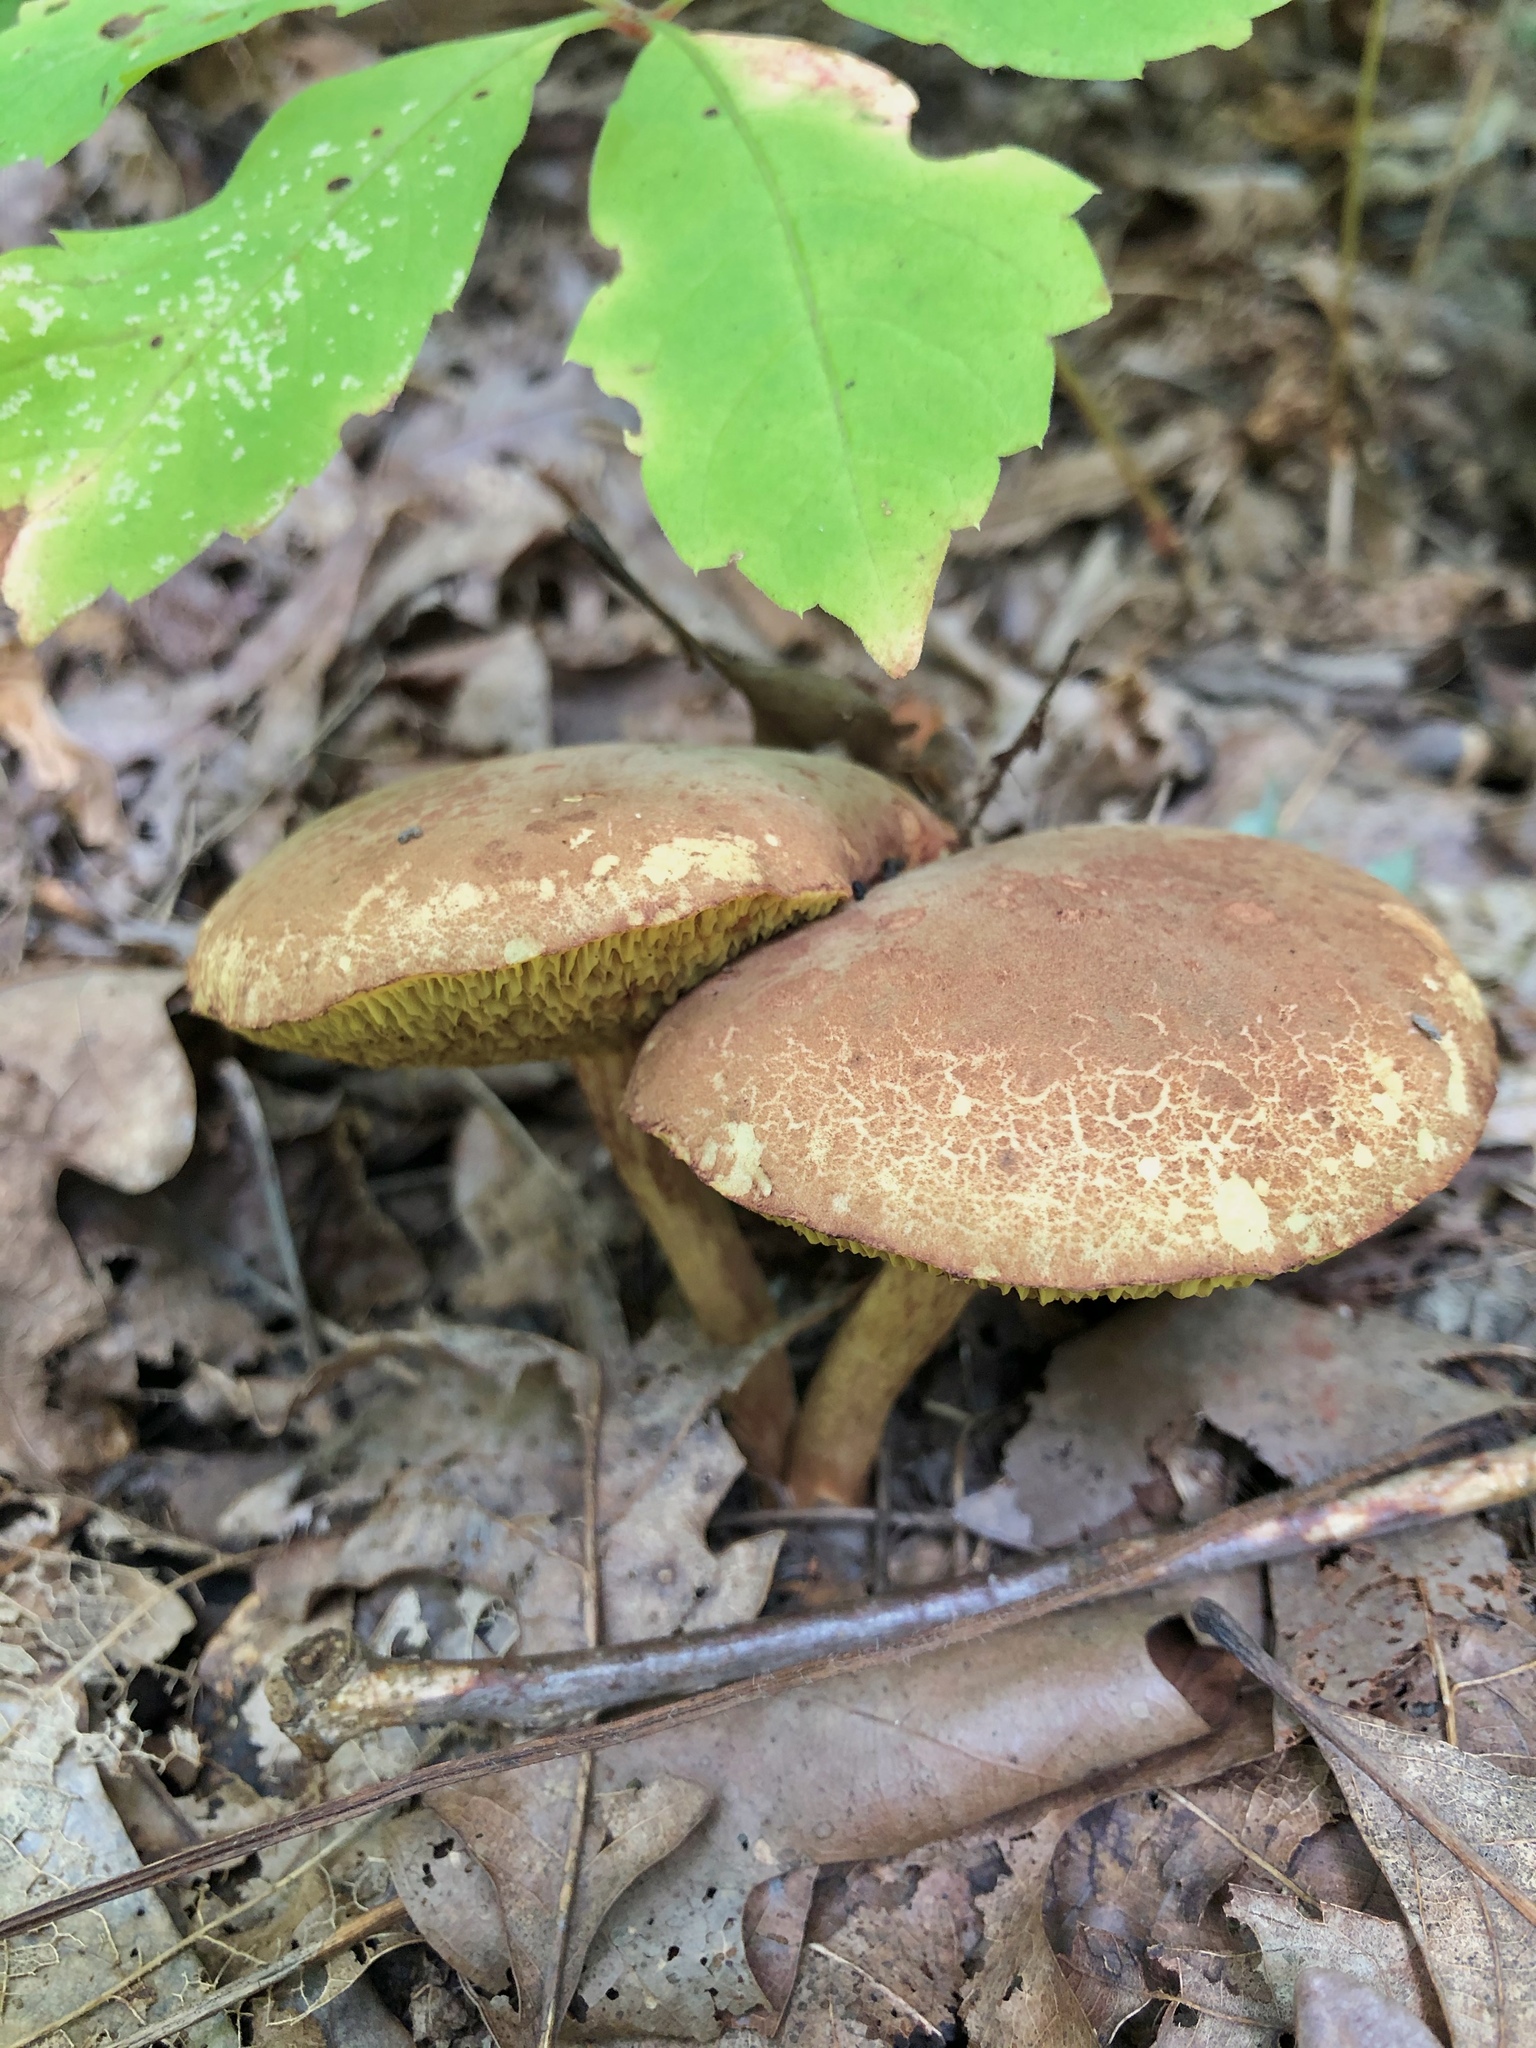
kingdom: Fungi
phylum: Basidiomycota
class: Agaricomycetes
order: Boletales
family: Boletaceae
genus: Xerocomellus
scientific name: Xerocomellus chrysenteron
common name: Red-cracking bolete
